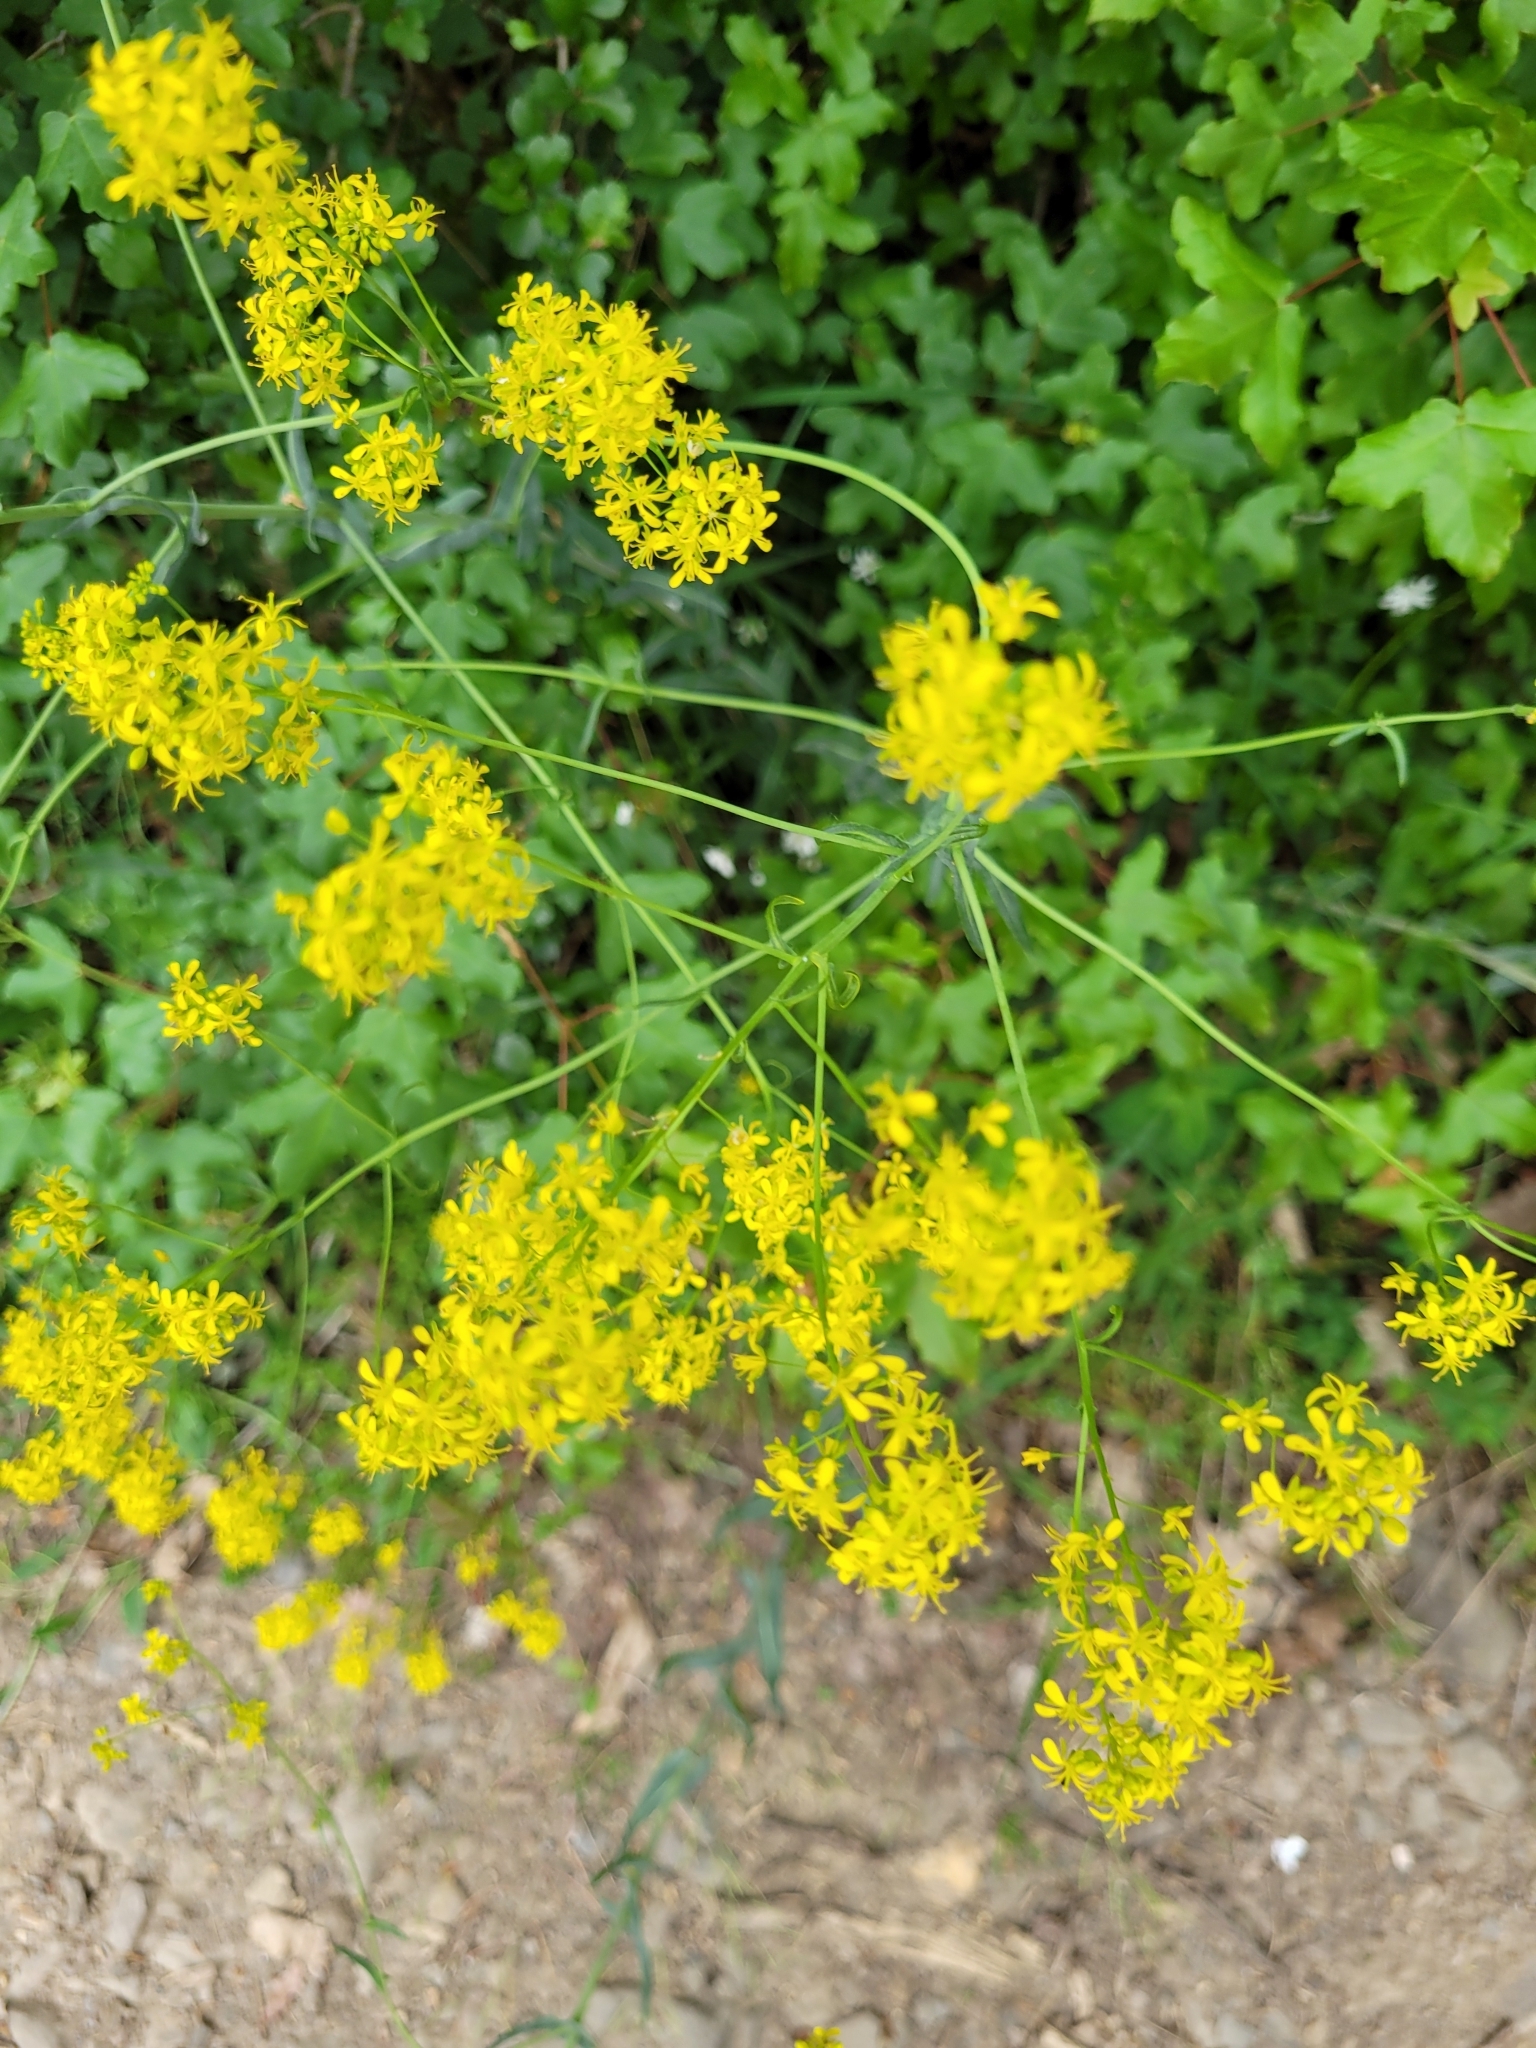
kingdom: Plantae
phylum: Tracheophyta
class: Magnoliopsida
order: Brassicales
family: Brassicaceae
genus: Isatis
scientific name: Isatis tinctoria
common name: Woad
